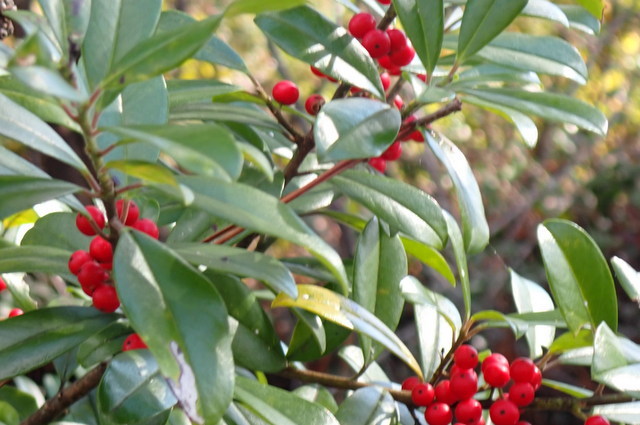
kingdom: Plantae
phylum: Tracheophyta
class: Magnoliopsida
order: Aquifoliales
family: Aquifoliaceae
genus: Ilex
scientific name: Ilex cassine
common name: Dahoon
